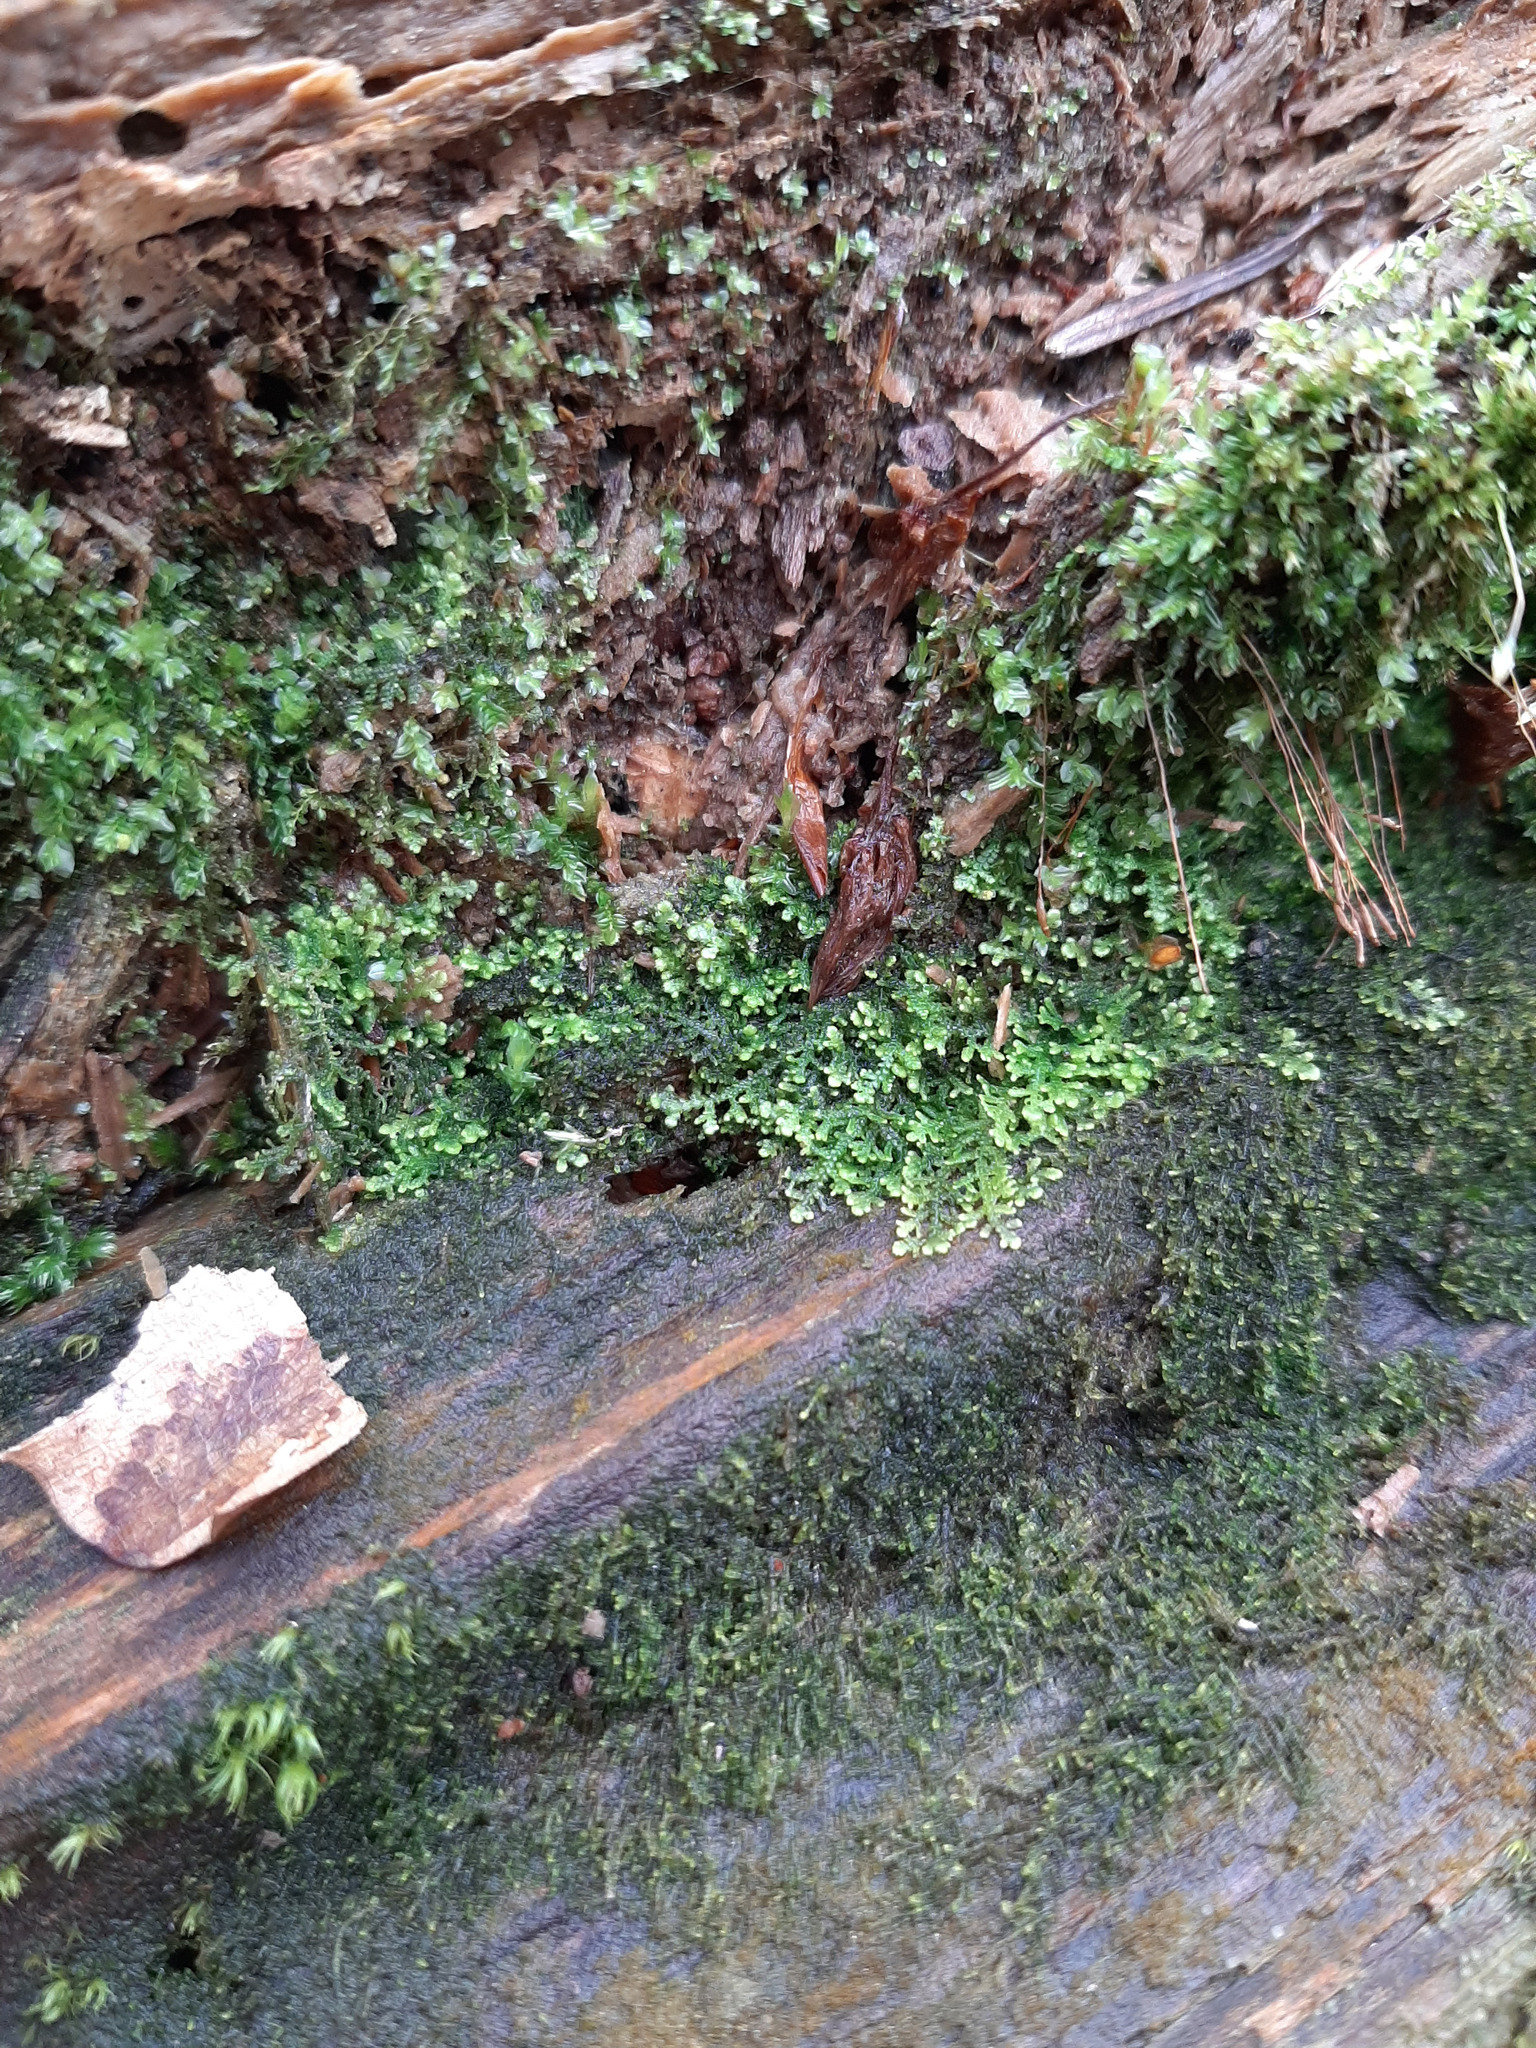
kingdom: Plantae
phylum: Marchantiophyta
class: Jungermanniopsida
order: Jungermanniales
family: Lepidoziaceae
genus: Lepidozia
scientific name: Lepidozia reptans
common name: Creeping fingerwort
